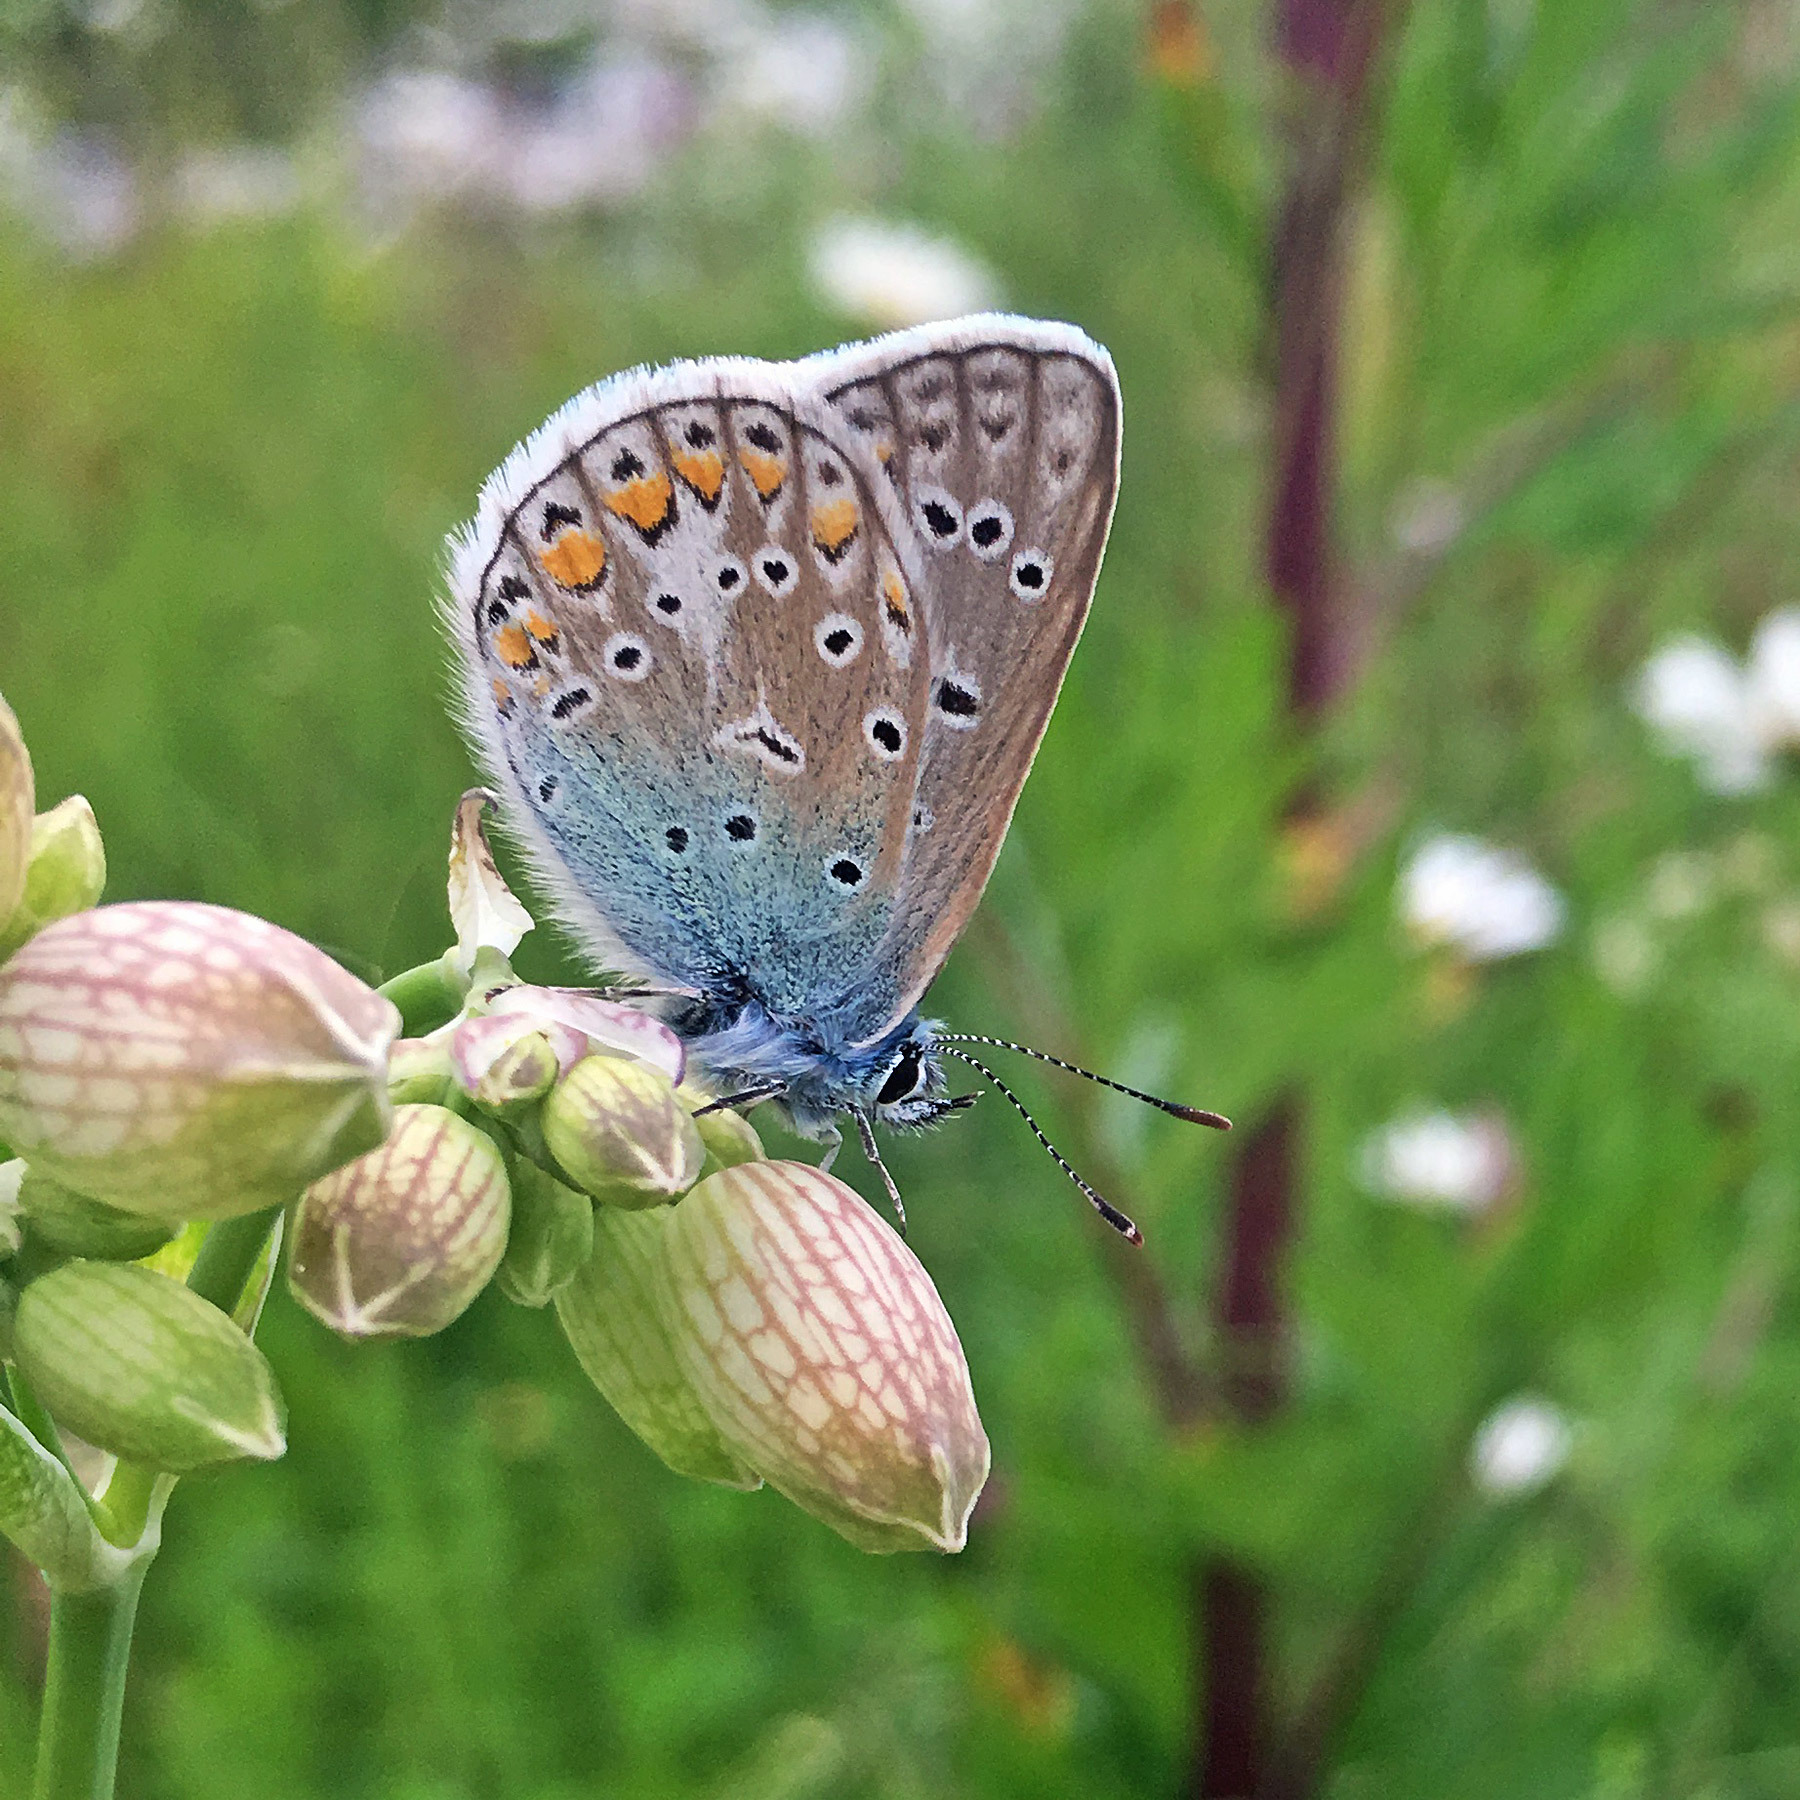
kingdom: Animalia
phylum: Arthropoda
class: Insecta
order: Lepidoptera
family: Lycaenidae
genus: Polyommatus
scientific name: Polyommatus icarus
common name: Common blue
